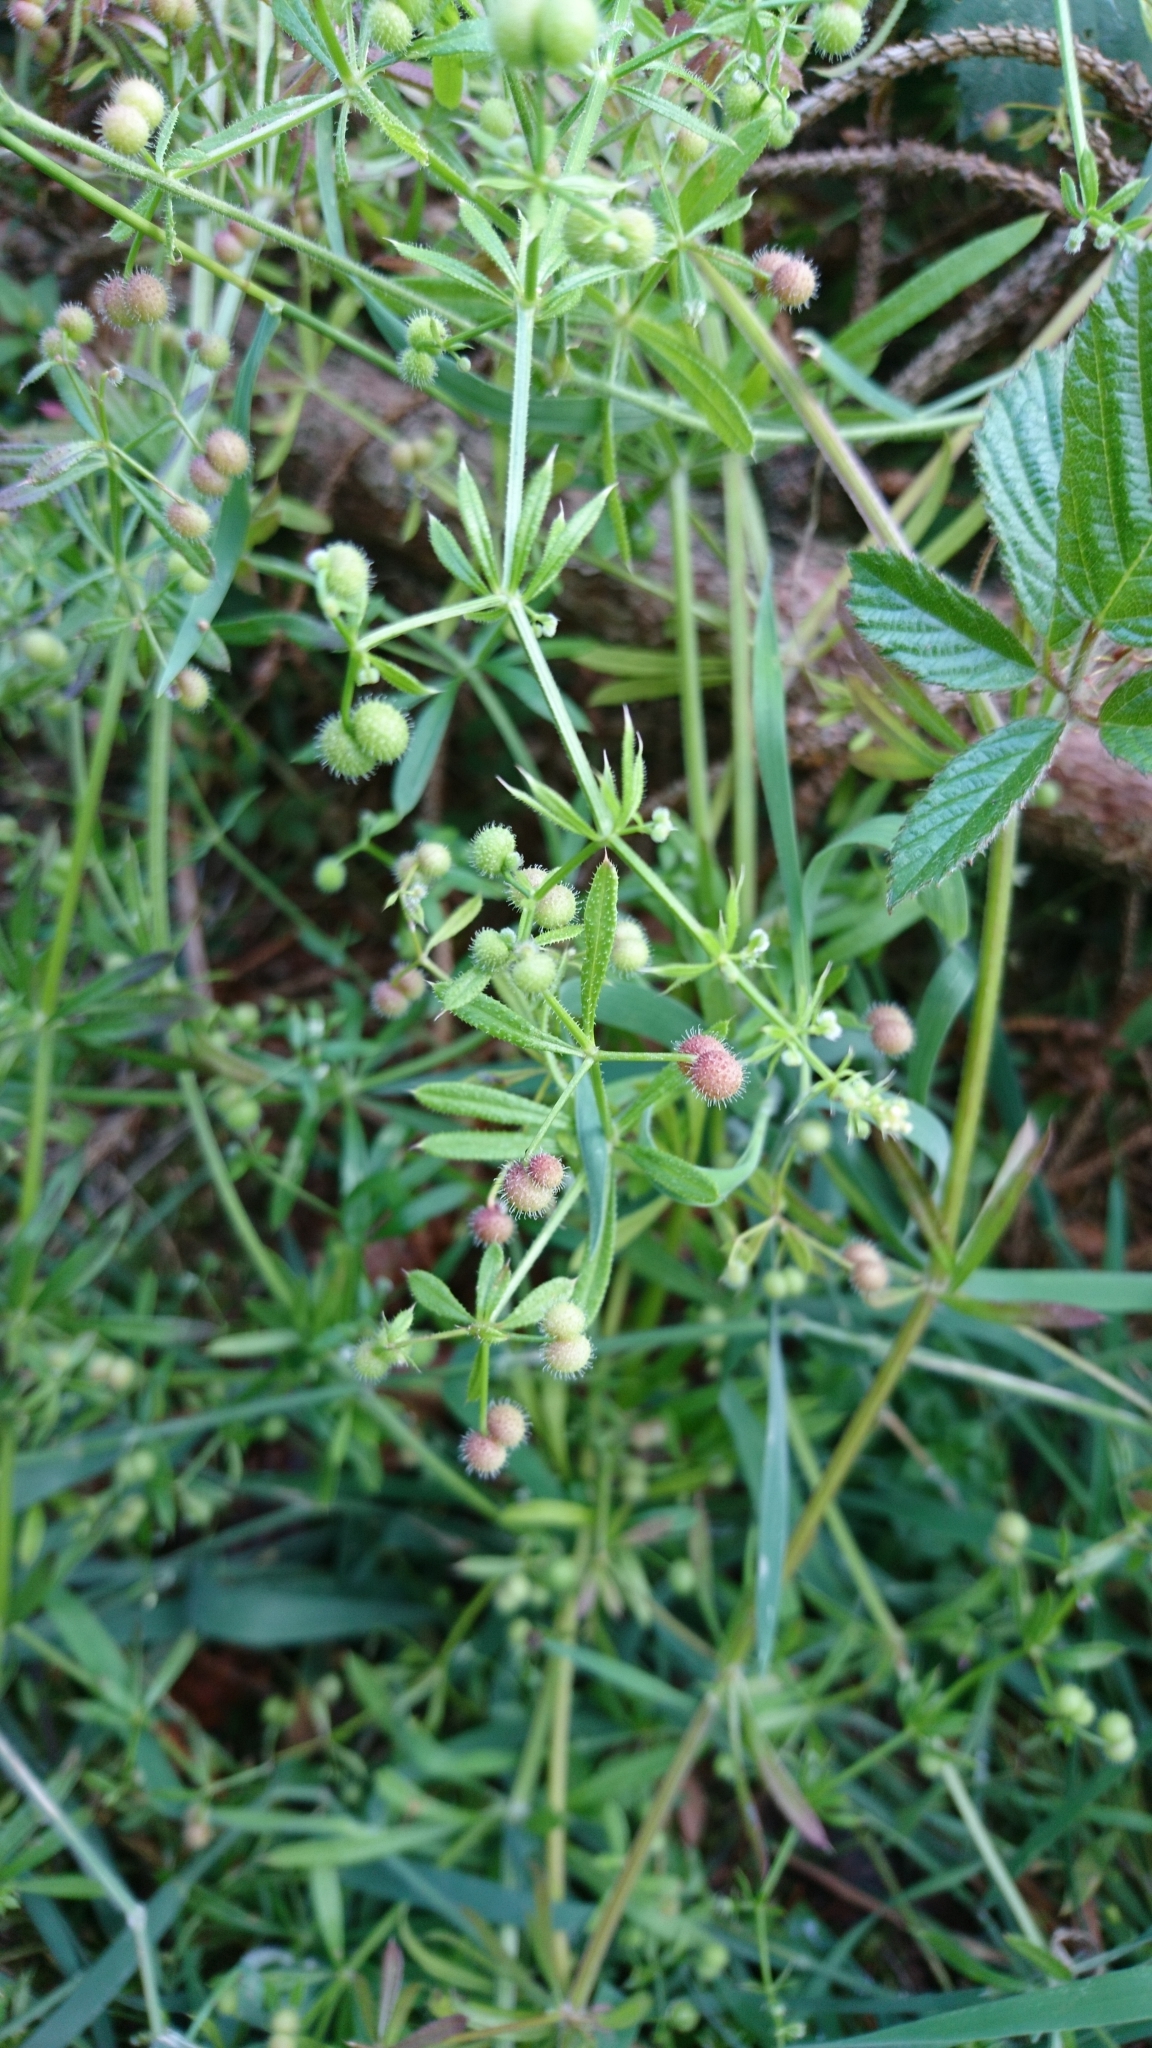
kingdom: Plantae
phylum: Tracheophyta
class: Magnoliopsida
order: Gentianales
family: Rubiaceae
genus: Galium
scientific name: Galium aparine
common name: Cleavers
